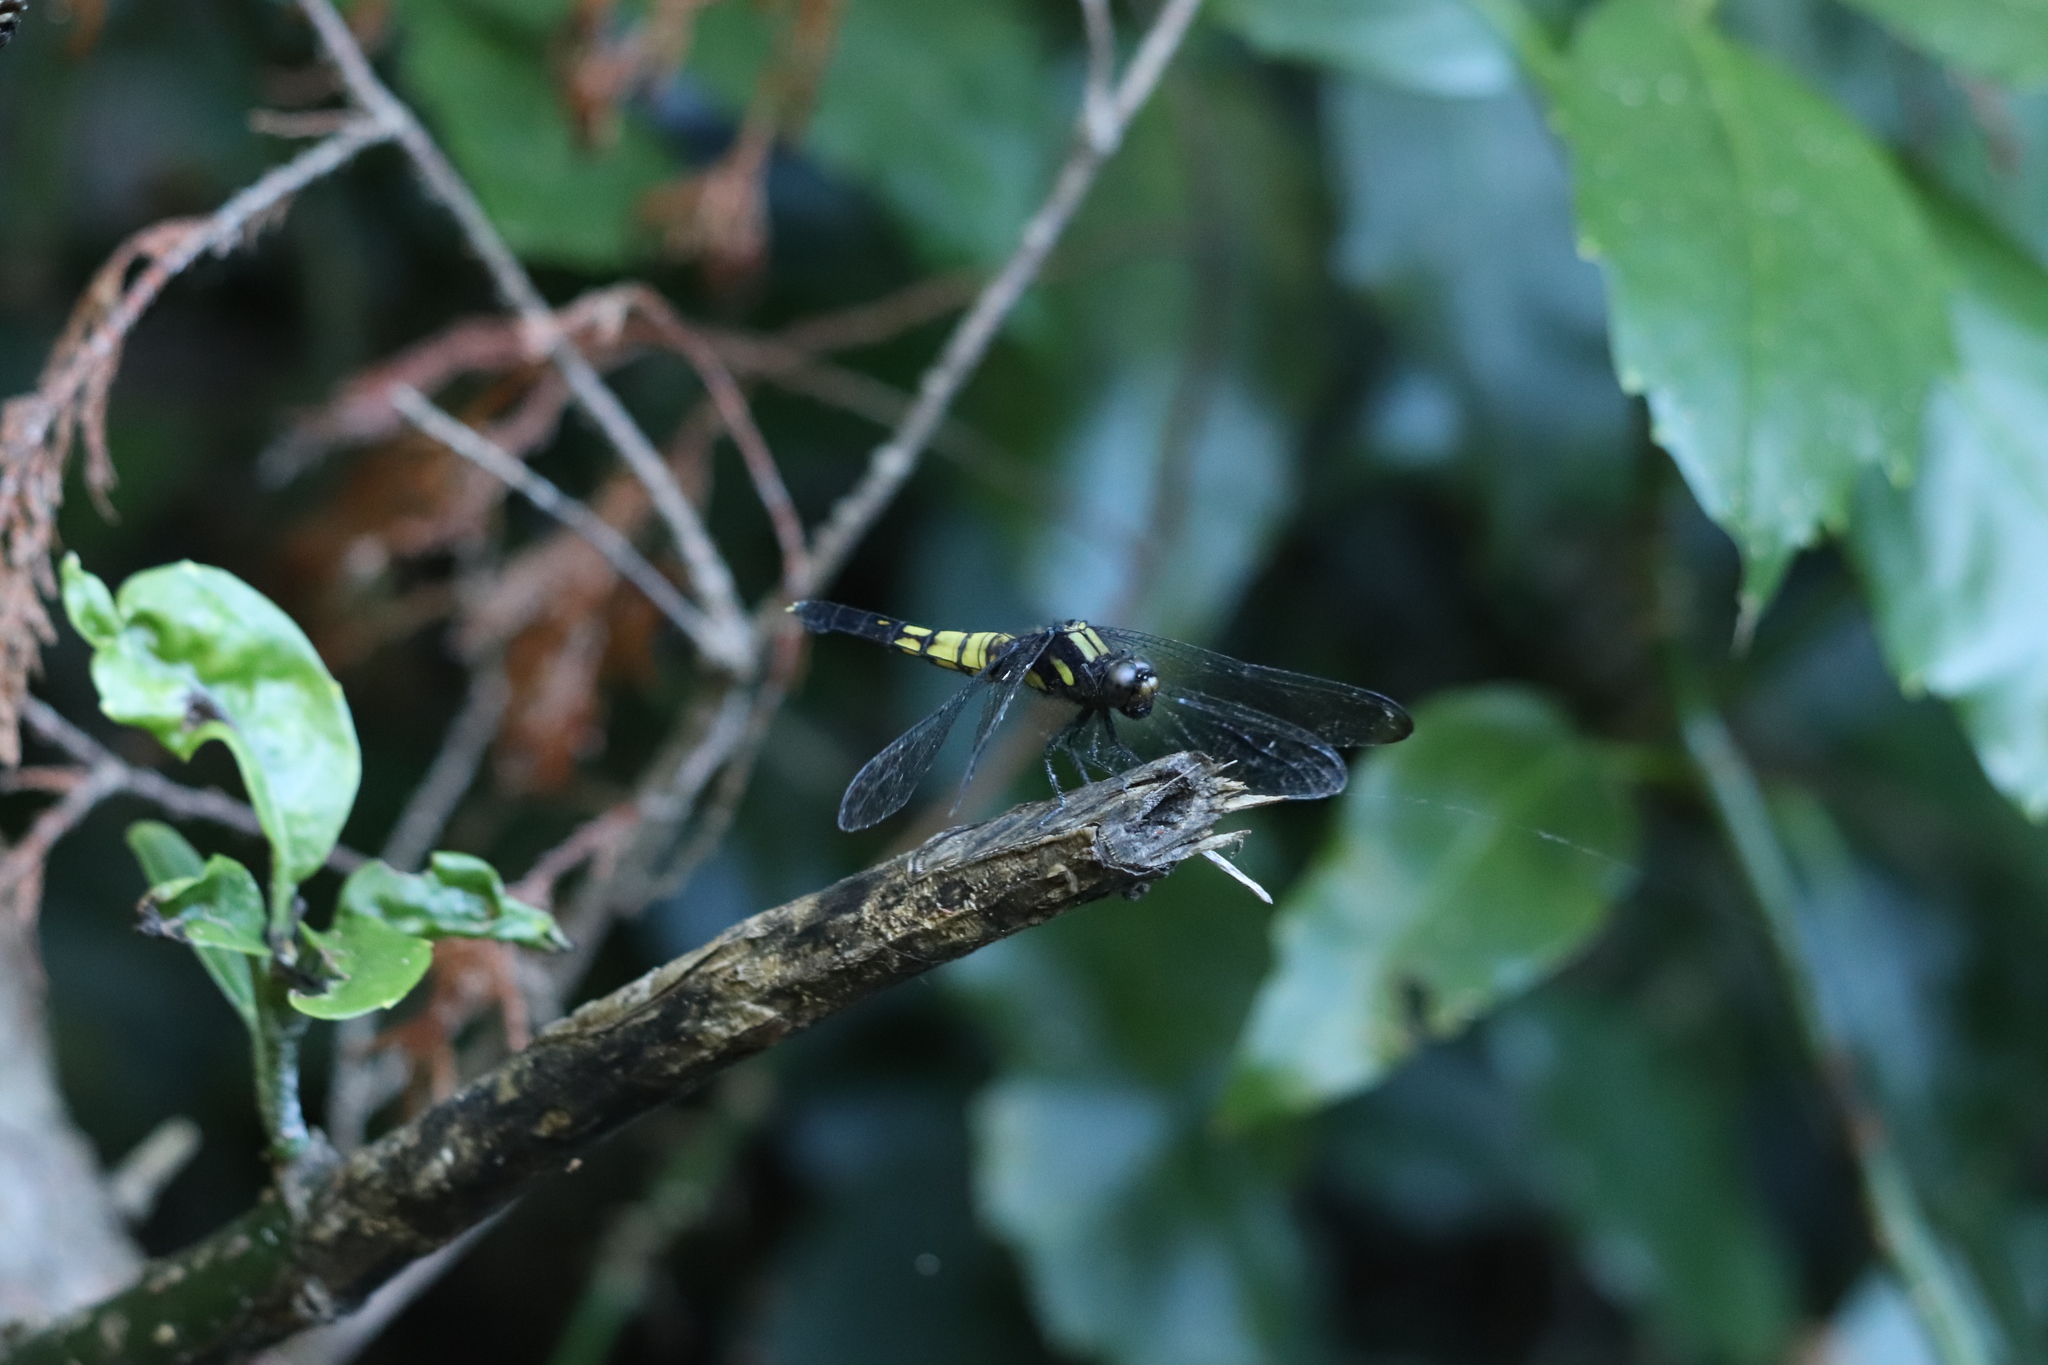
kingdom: Animalia
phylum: Arthropoda
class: Insecta
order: Odonata
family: Libellulidae
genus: Orthetrum
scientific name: Orthetrum melania
